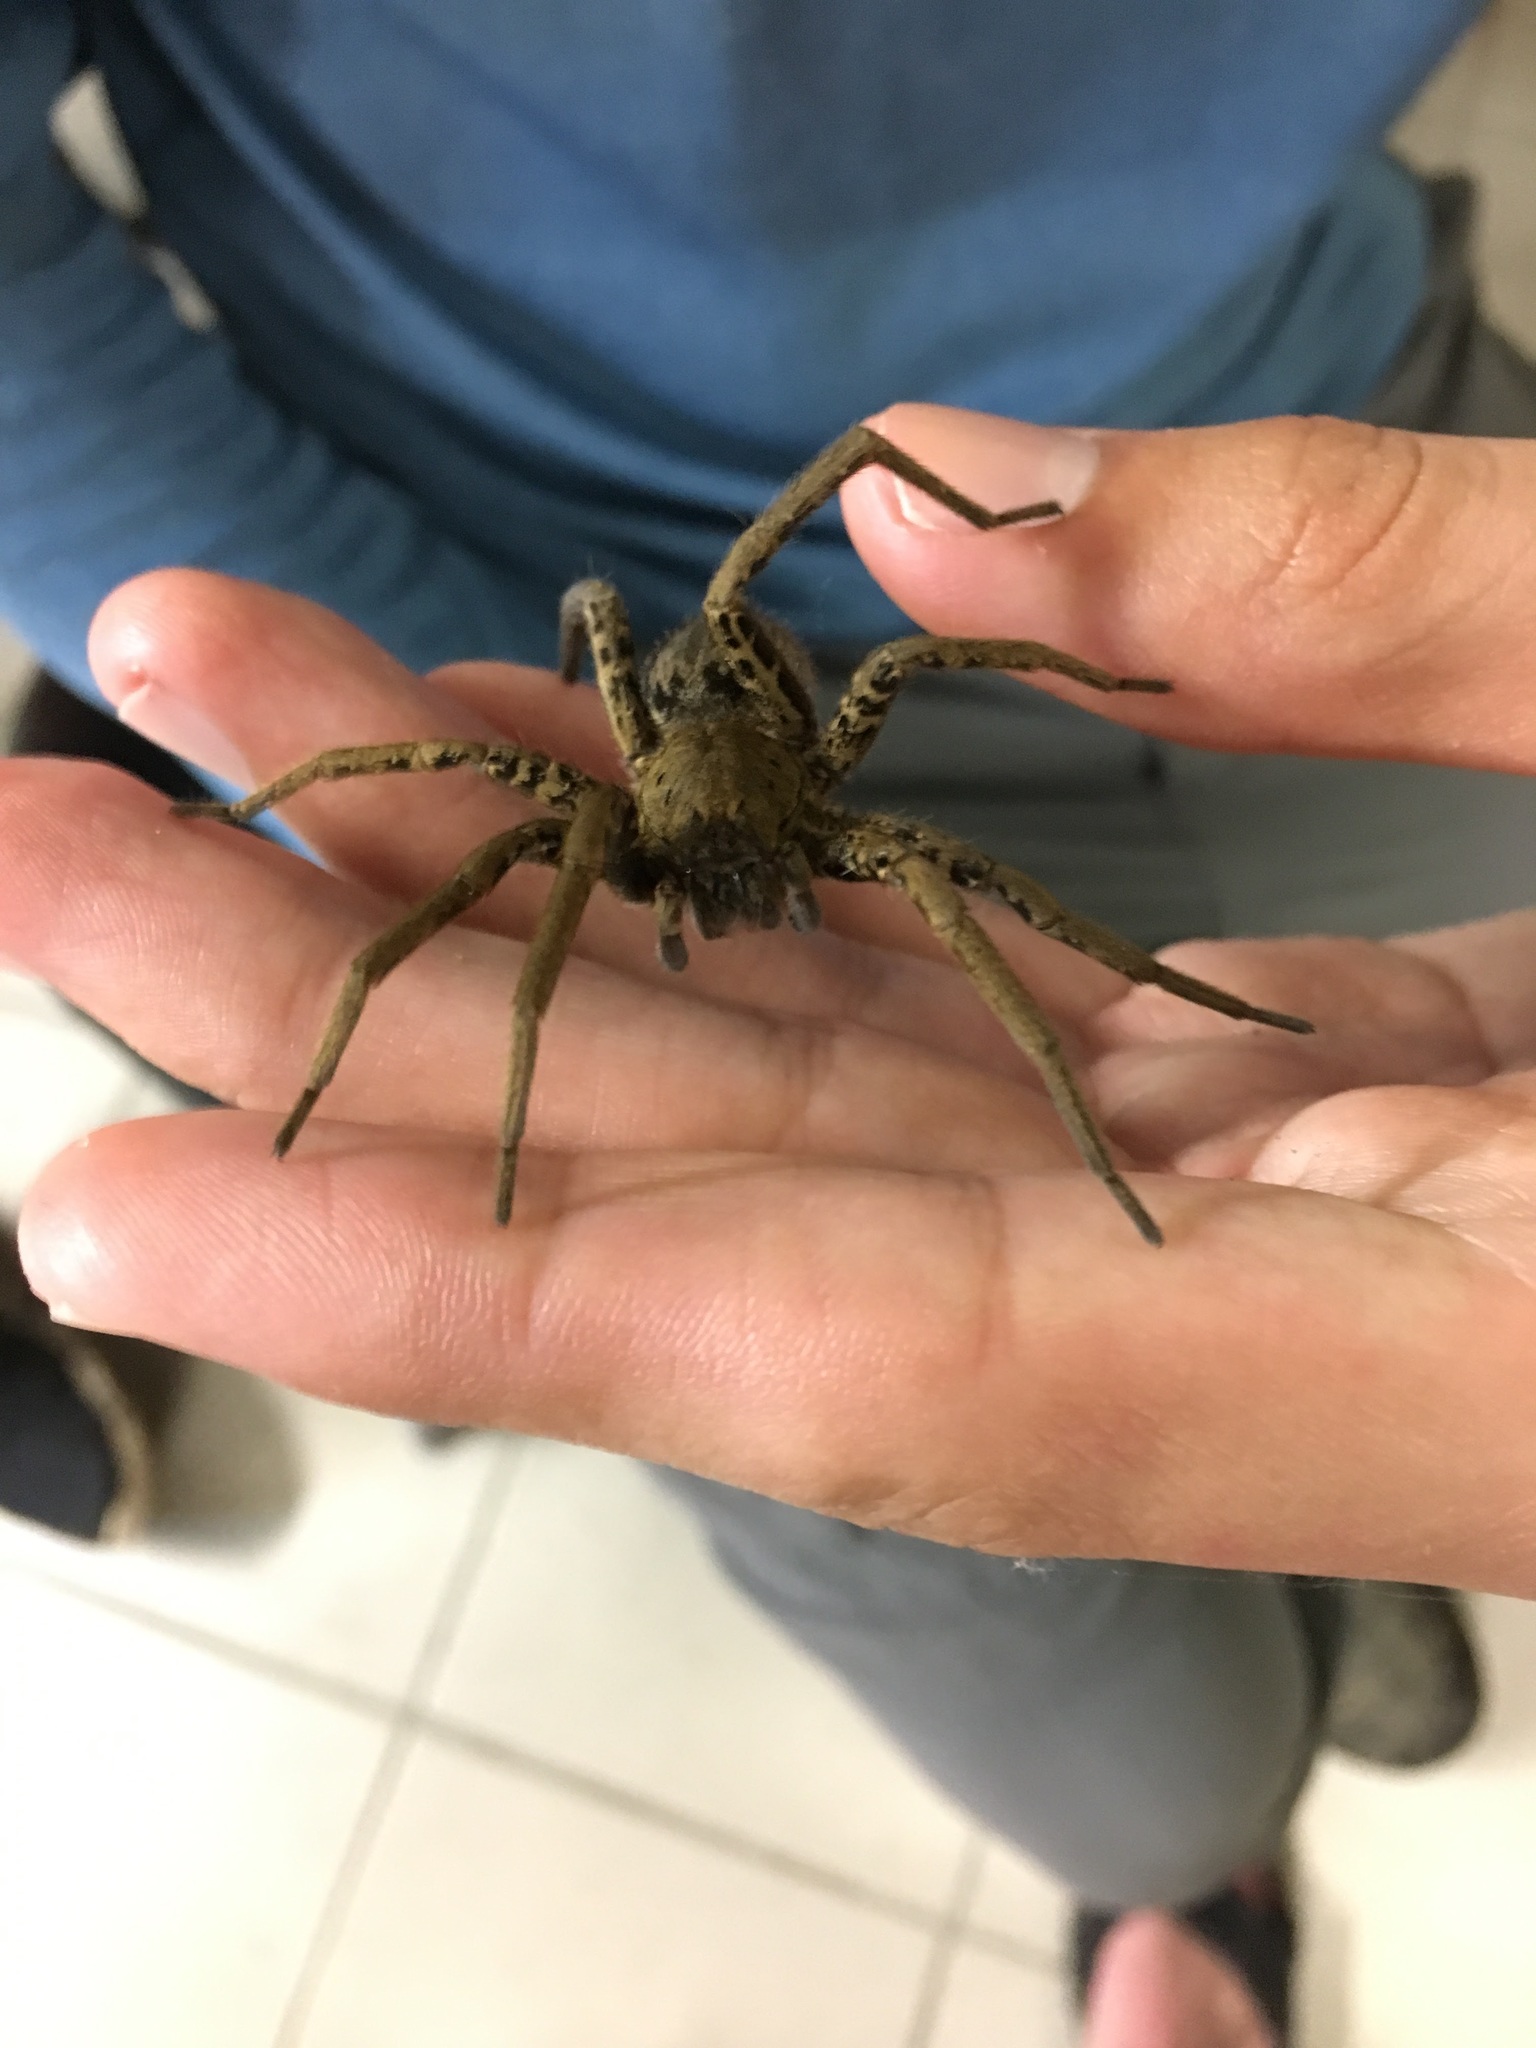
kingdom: Animalia
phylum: Arthropoda
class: Arachnida
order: Araneae
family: Ctenidae
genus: Ancylometes
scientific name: Ancylometes bogotensis
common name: Wandering spiders
